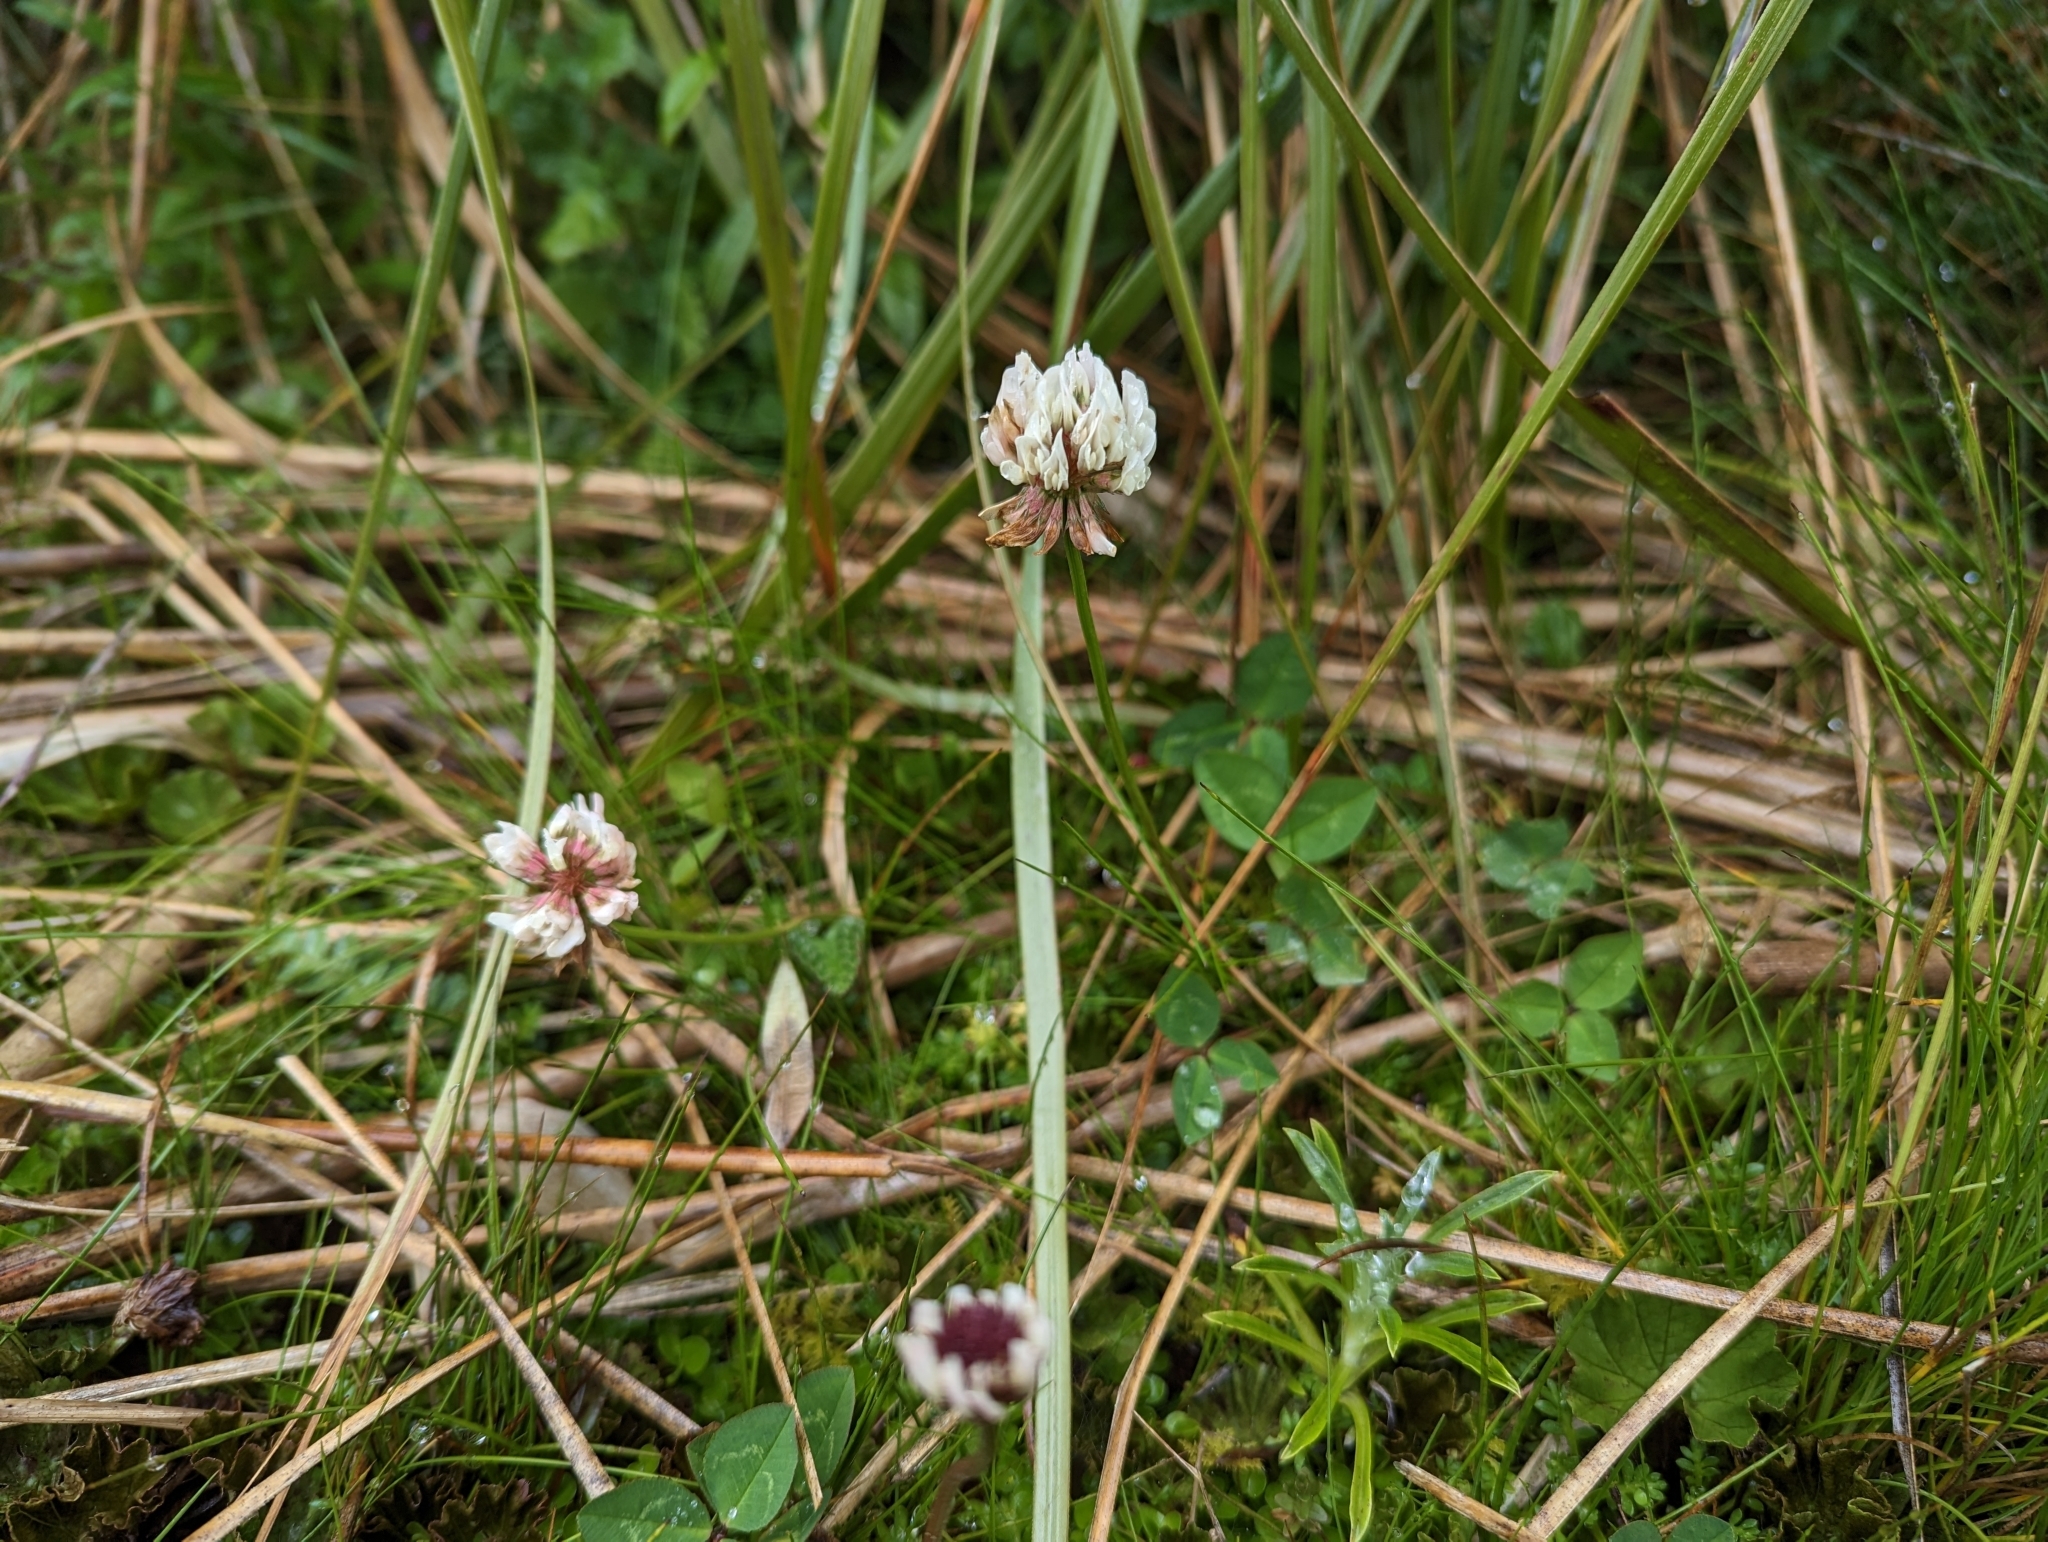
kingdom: Plantae
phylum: Tracheophyta
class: Magnoliopsida
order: Fabales
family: Fabaceae
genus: Trifolium
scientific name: Trifolium repens
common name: White clover
